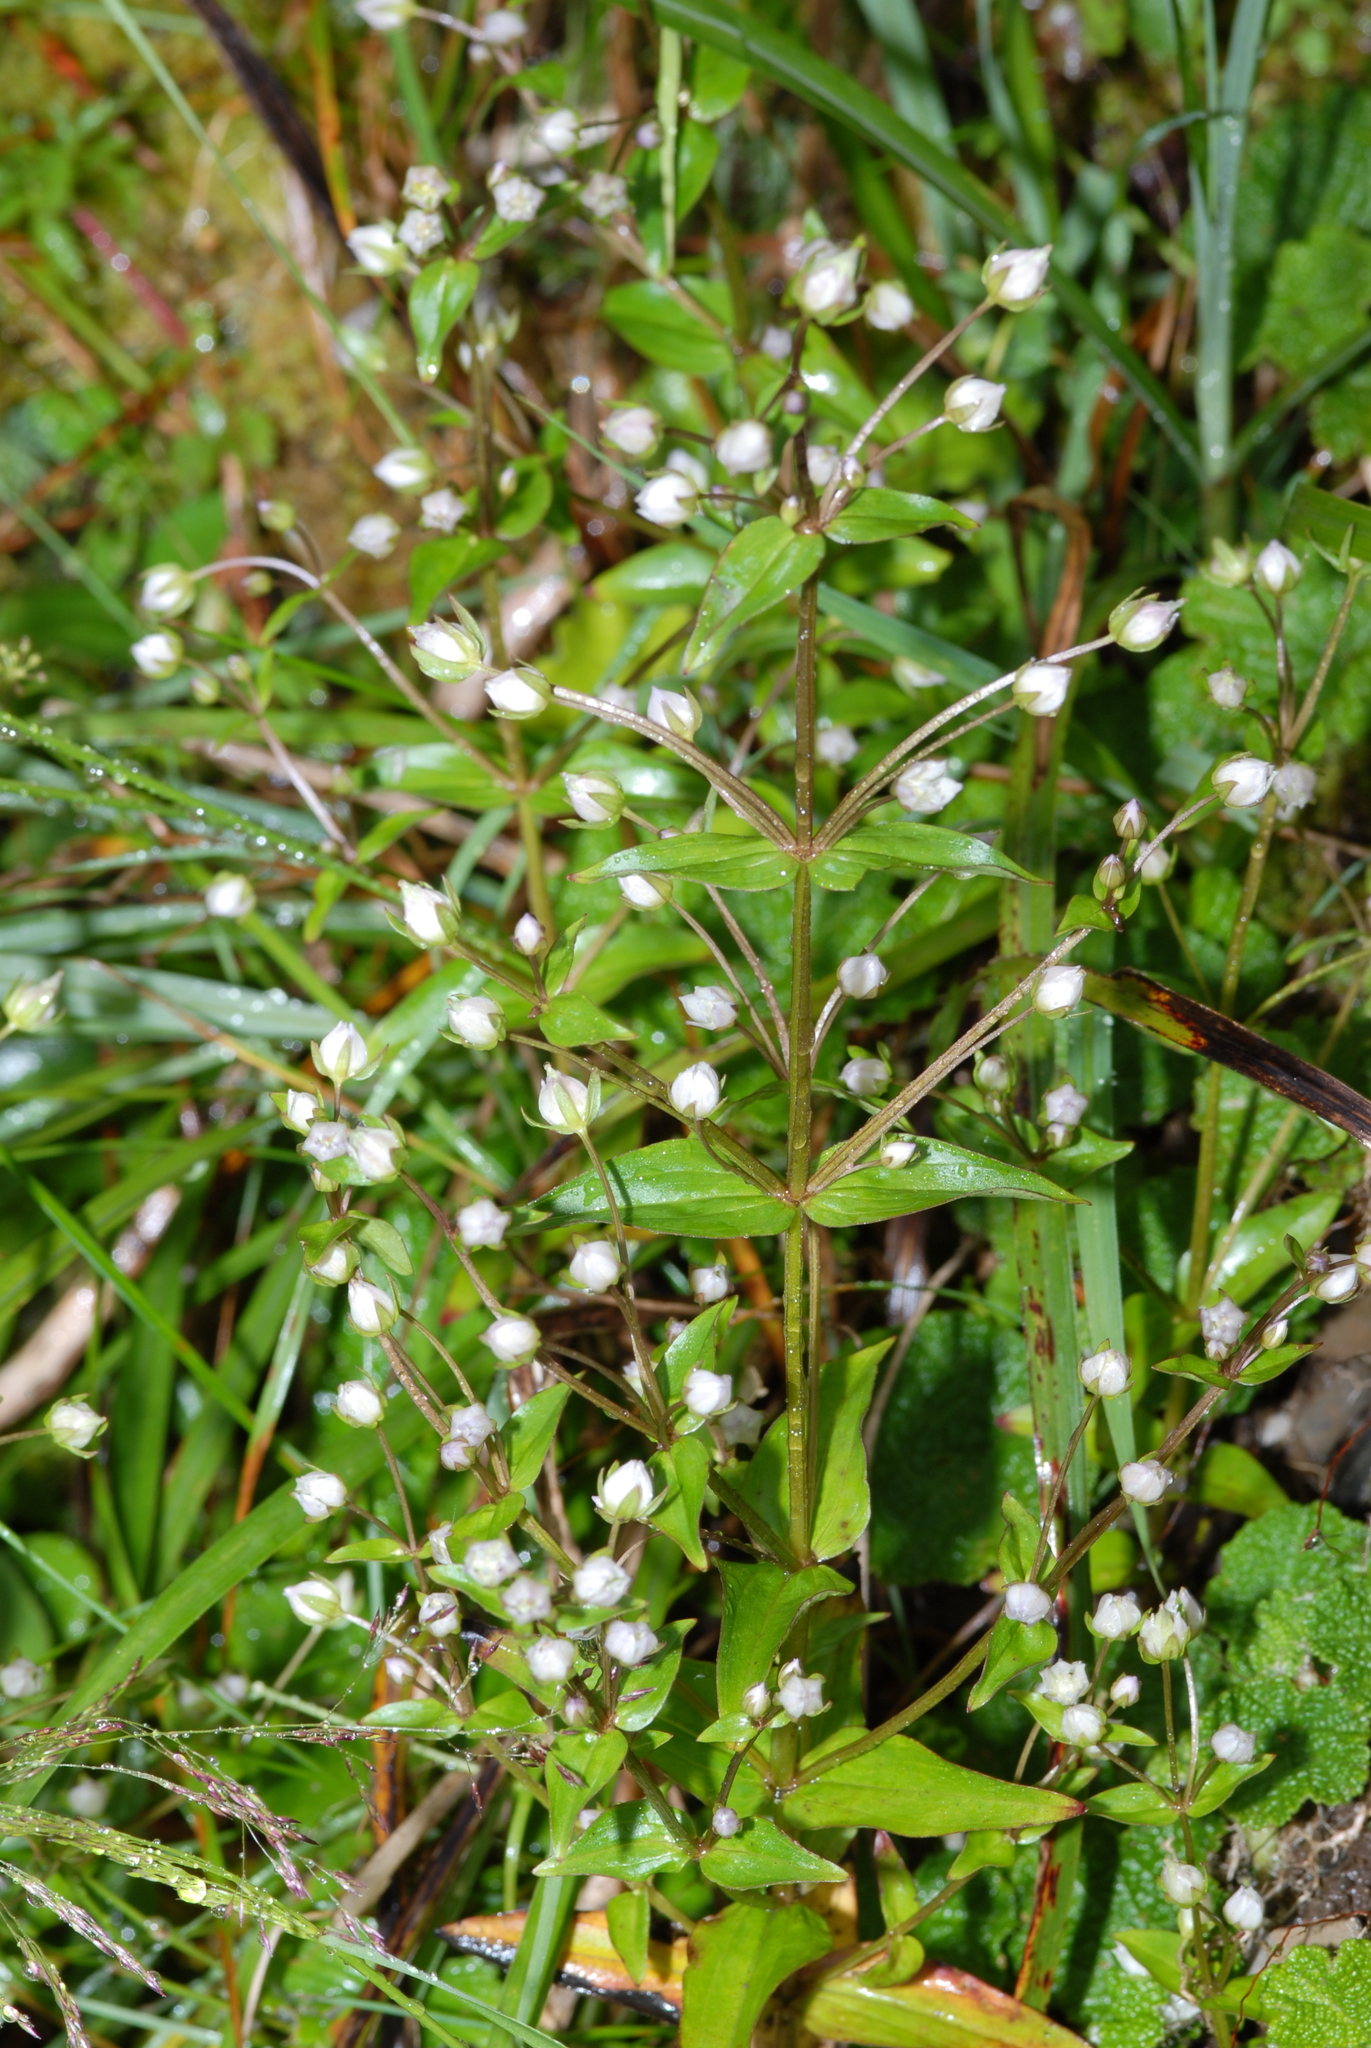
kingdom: Plantae
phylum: Tracheophyta
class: Magnoliopsida
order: Gentianales
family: Gentianaceae
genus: Swertia
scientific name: Swertia macrosperma
